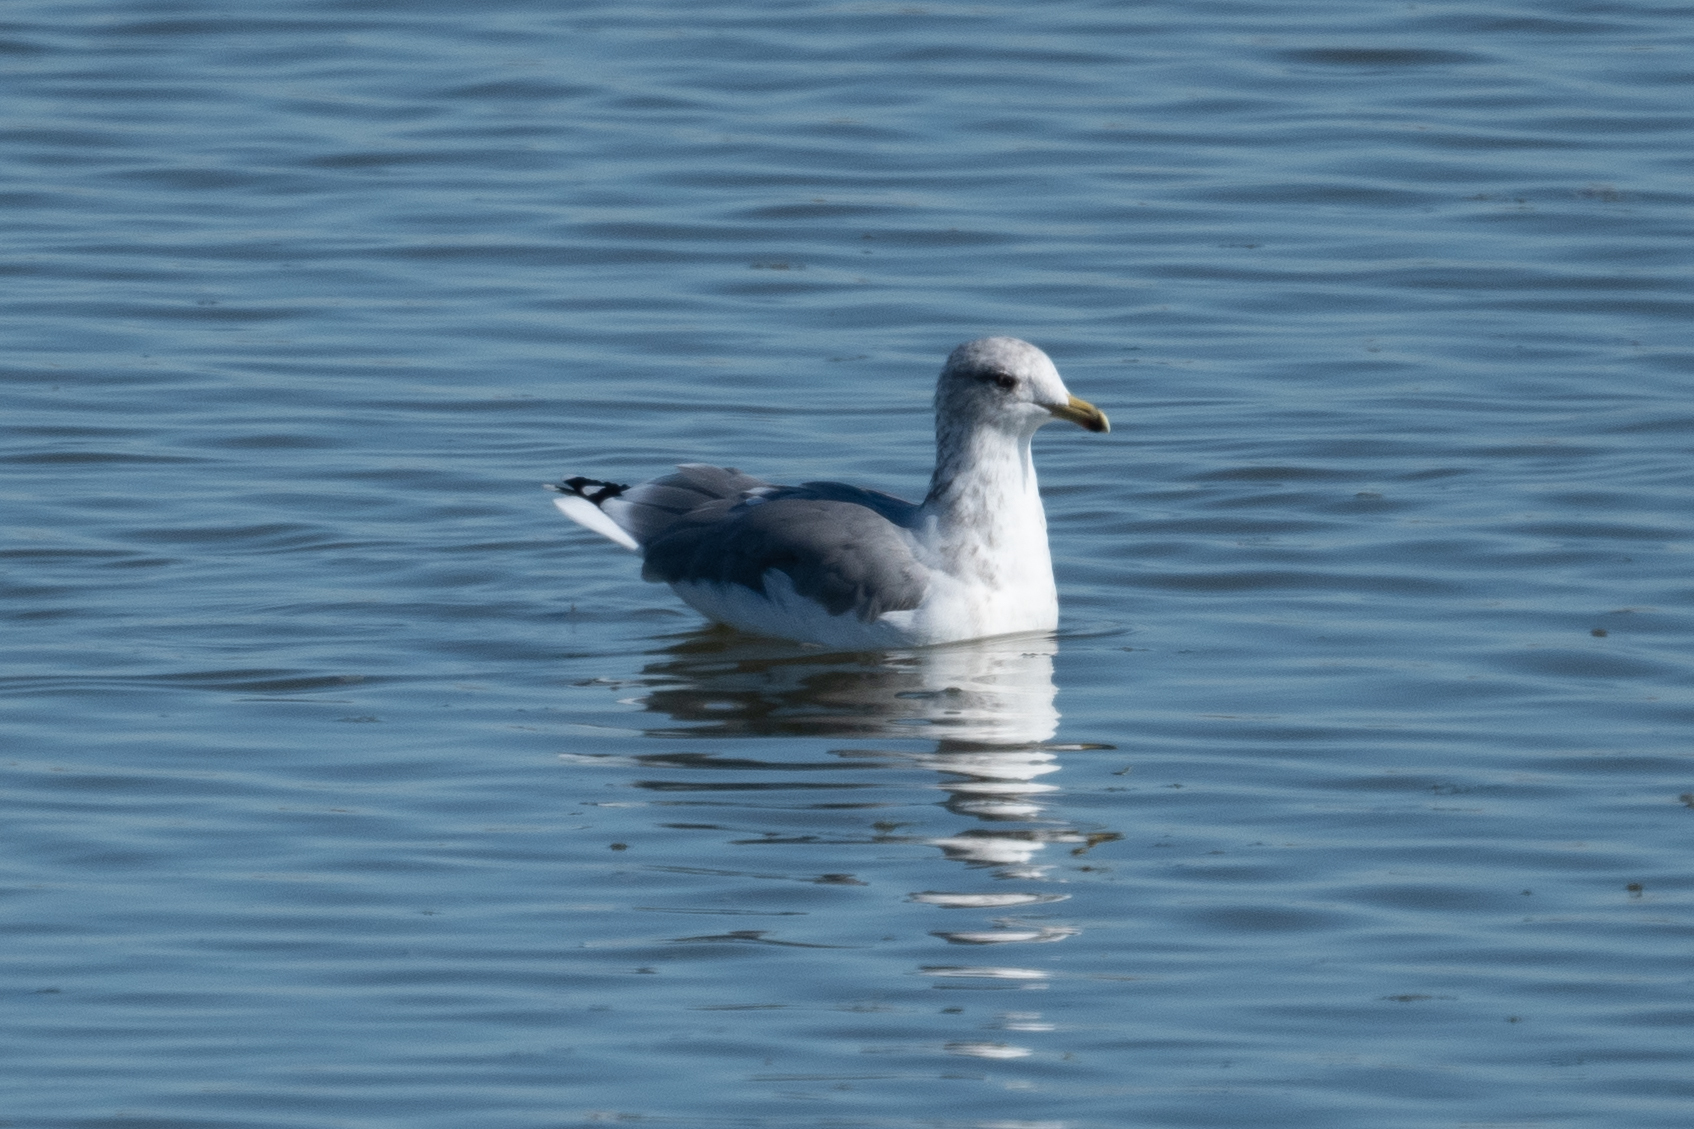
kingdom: Animalia
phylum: Chordata
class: Aves
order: Charadriiformes
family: Laridae
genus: Larus
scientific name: Larus californicus
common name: California gull
